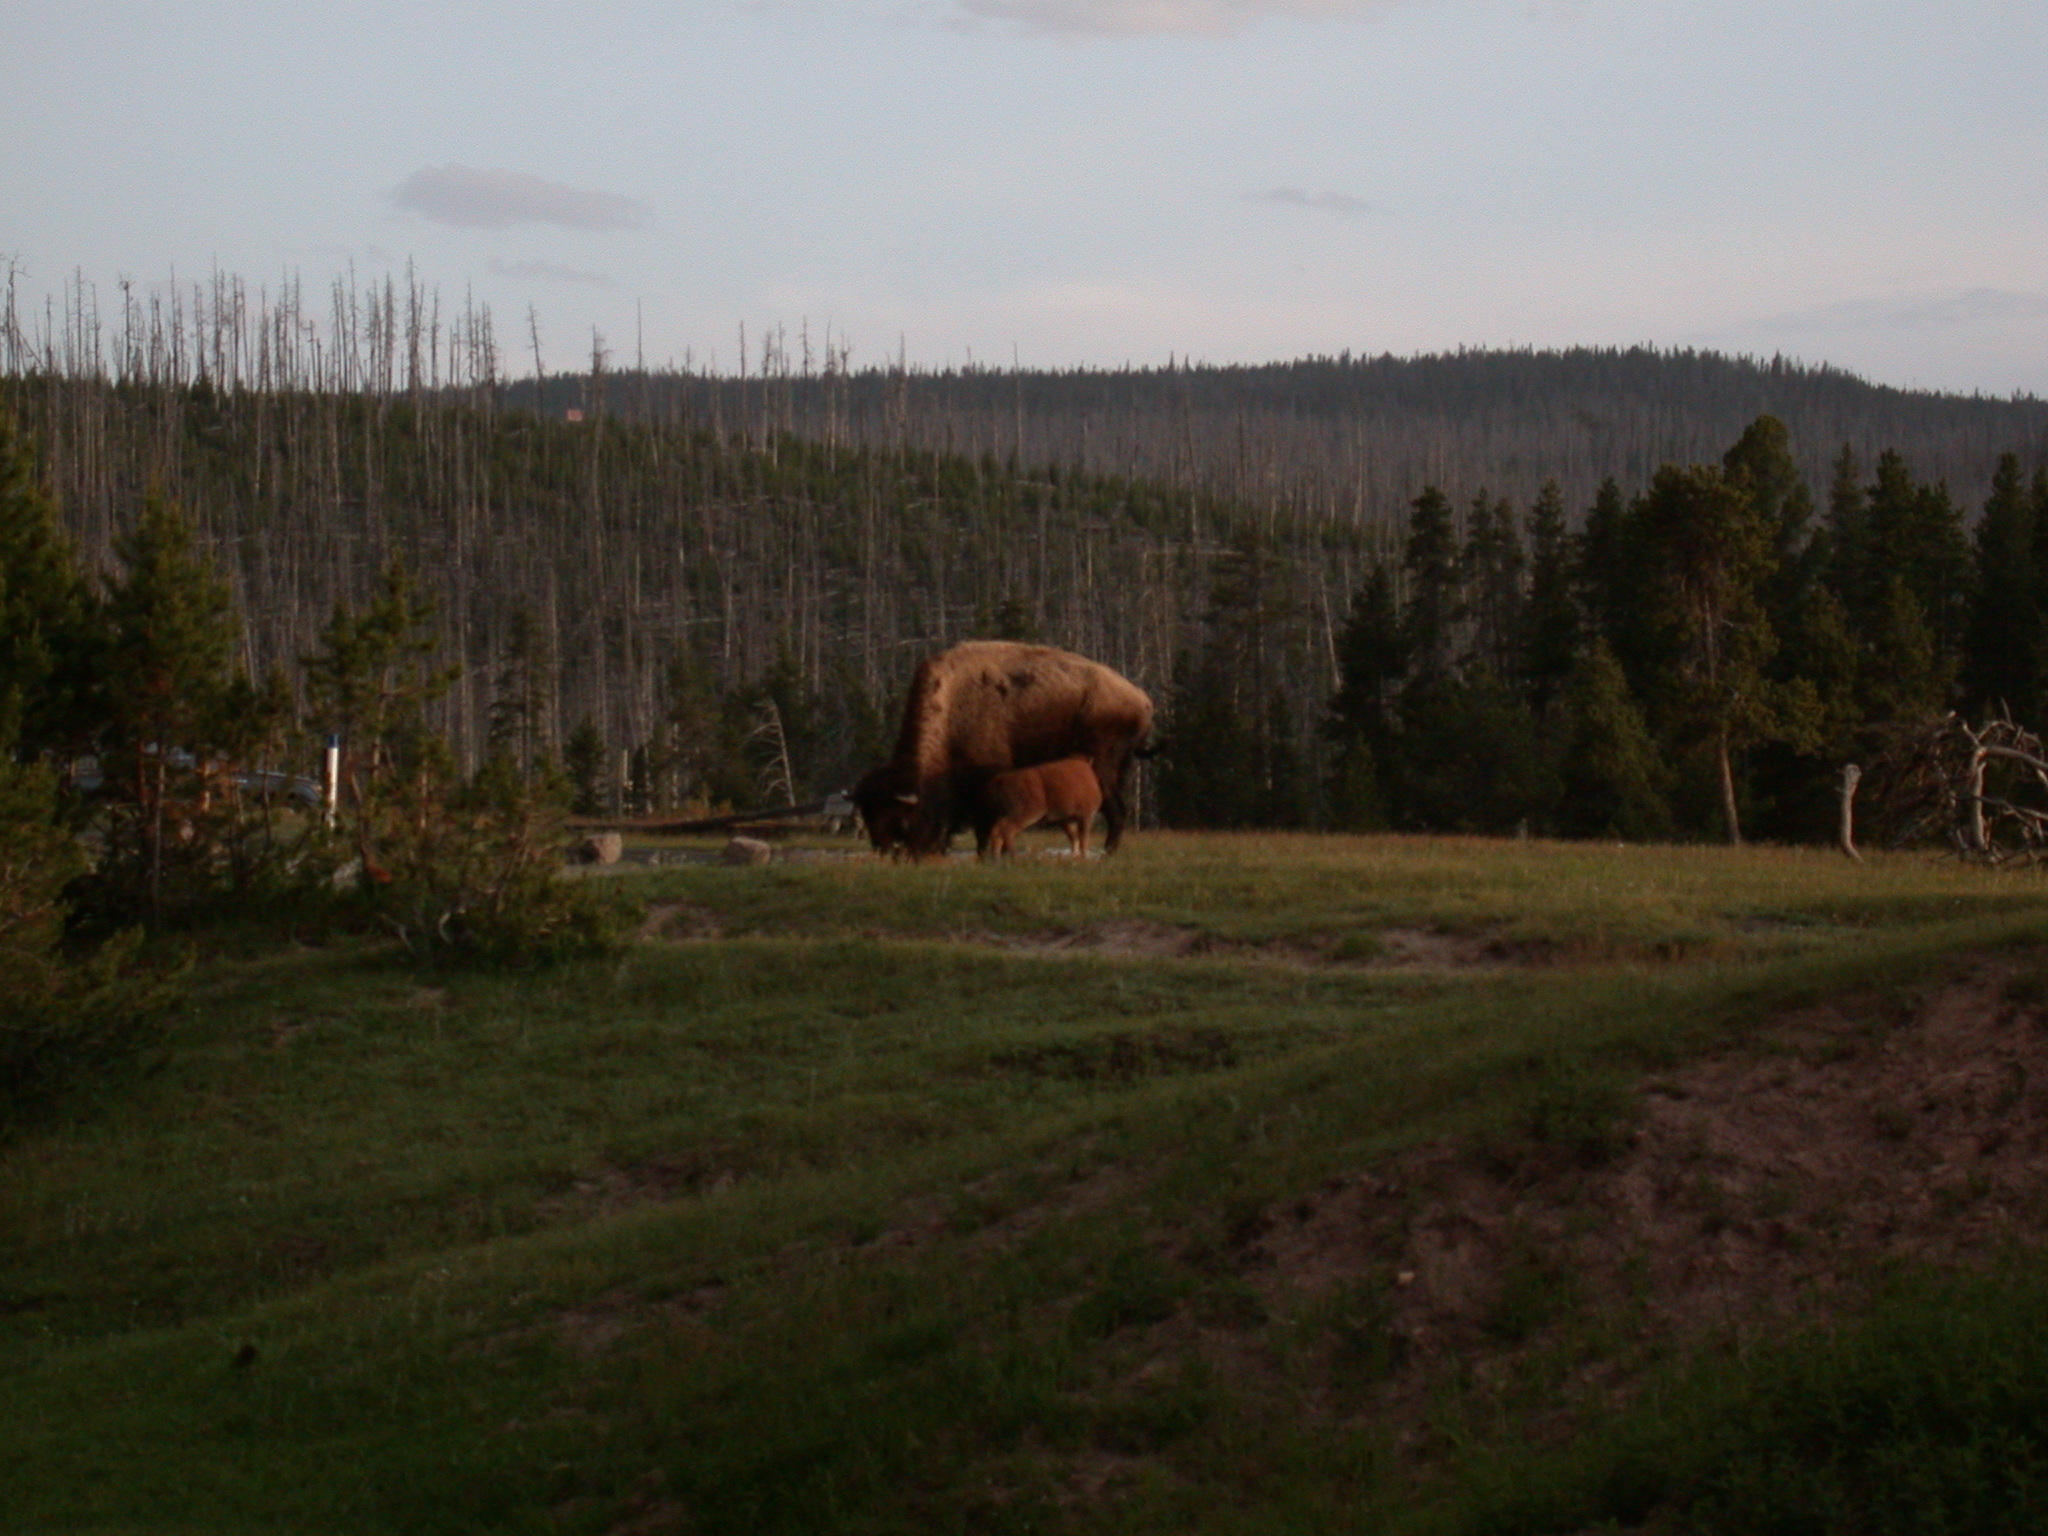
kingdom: Animalia
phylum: Chordata
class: Mammalia
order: Artiodactyla
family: Bovidae
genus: Bison
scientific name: Bison bison
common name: American bison
